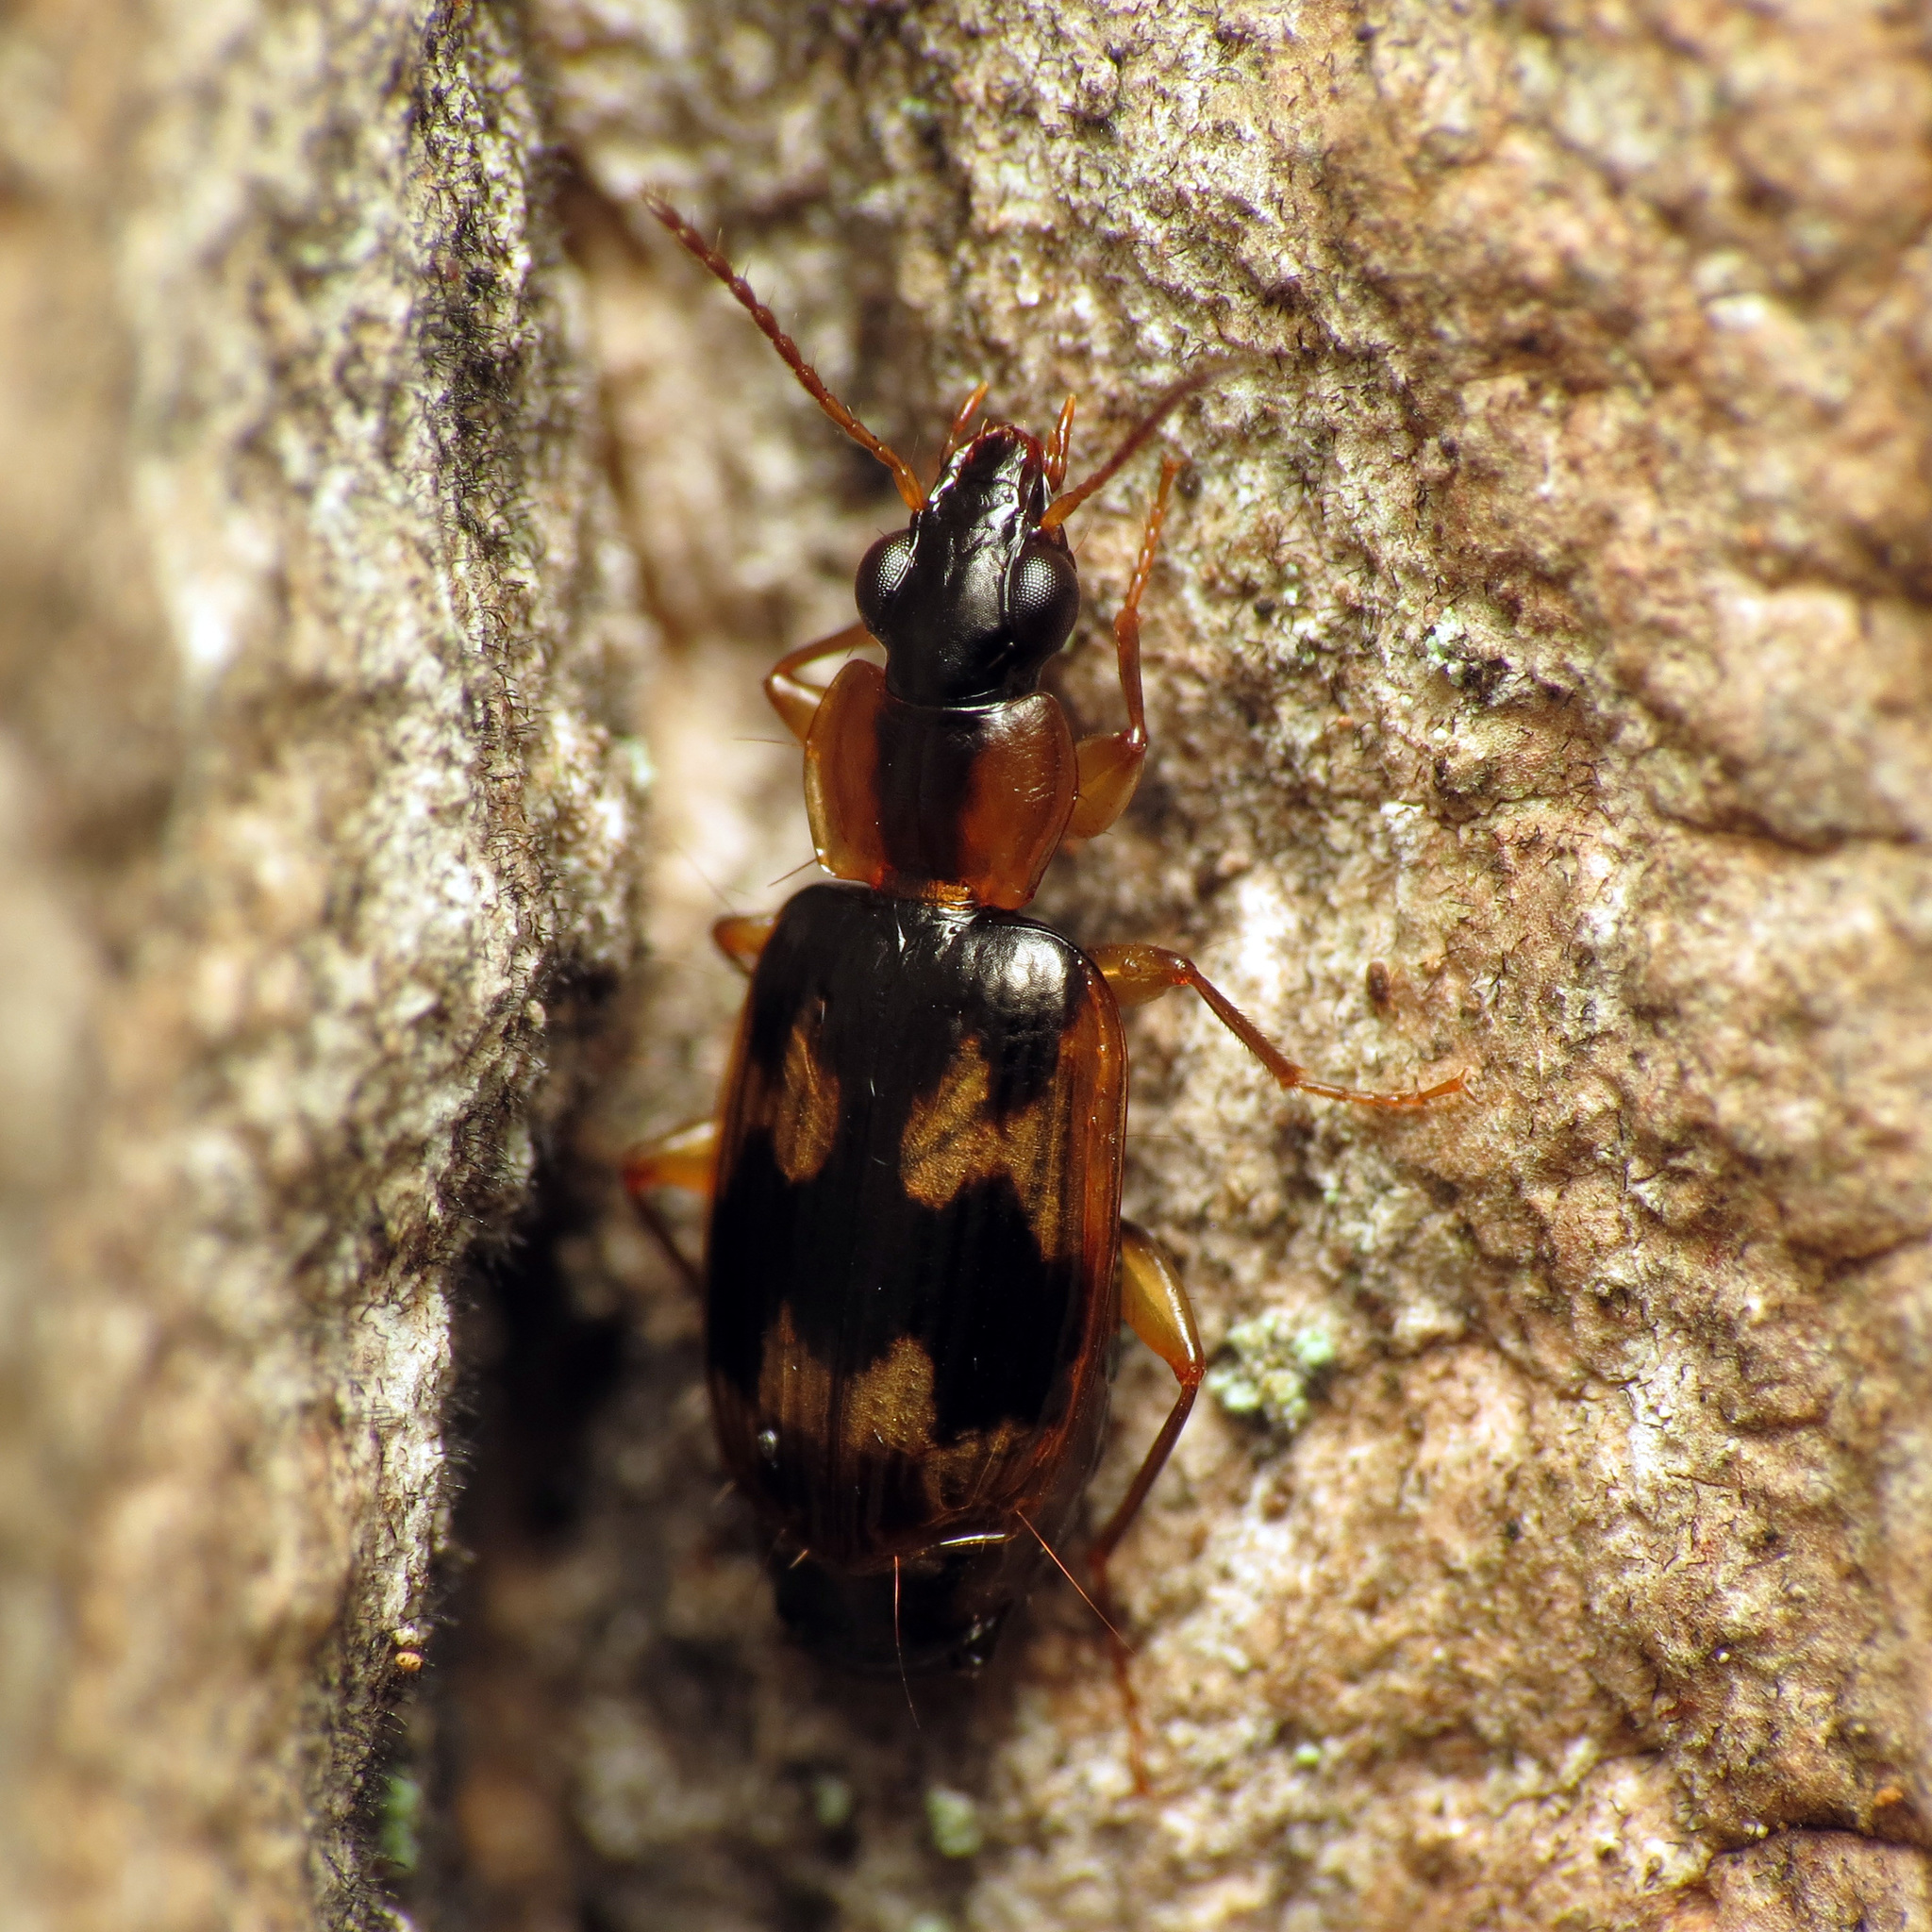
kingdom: Animalia
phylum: Arthropoda
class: Insecta
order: Coleoptera
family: Carabidae
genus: Phloeoxena
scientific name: Phloeoxena signata
